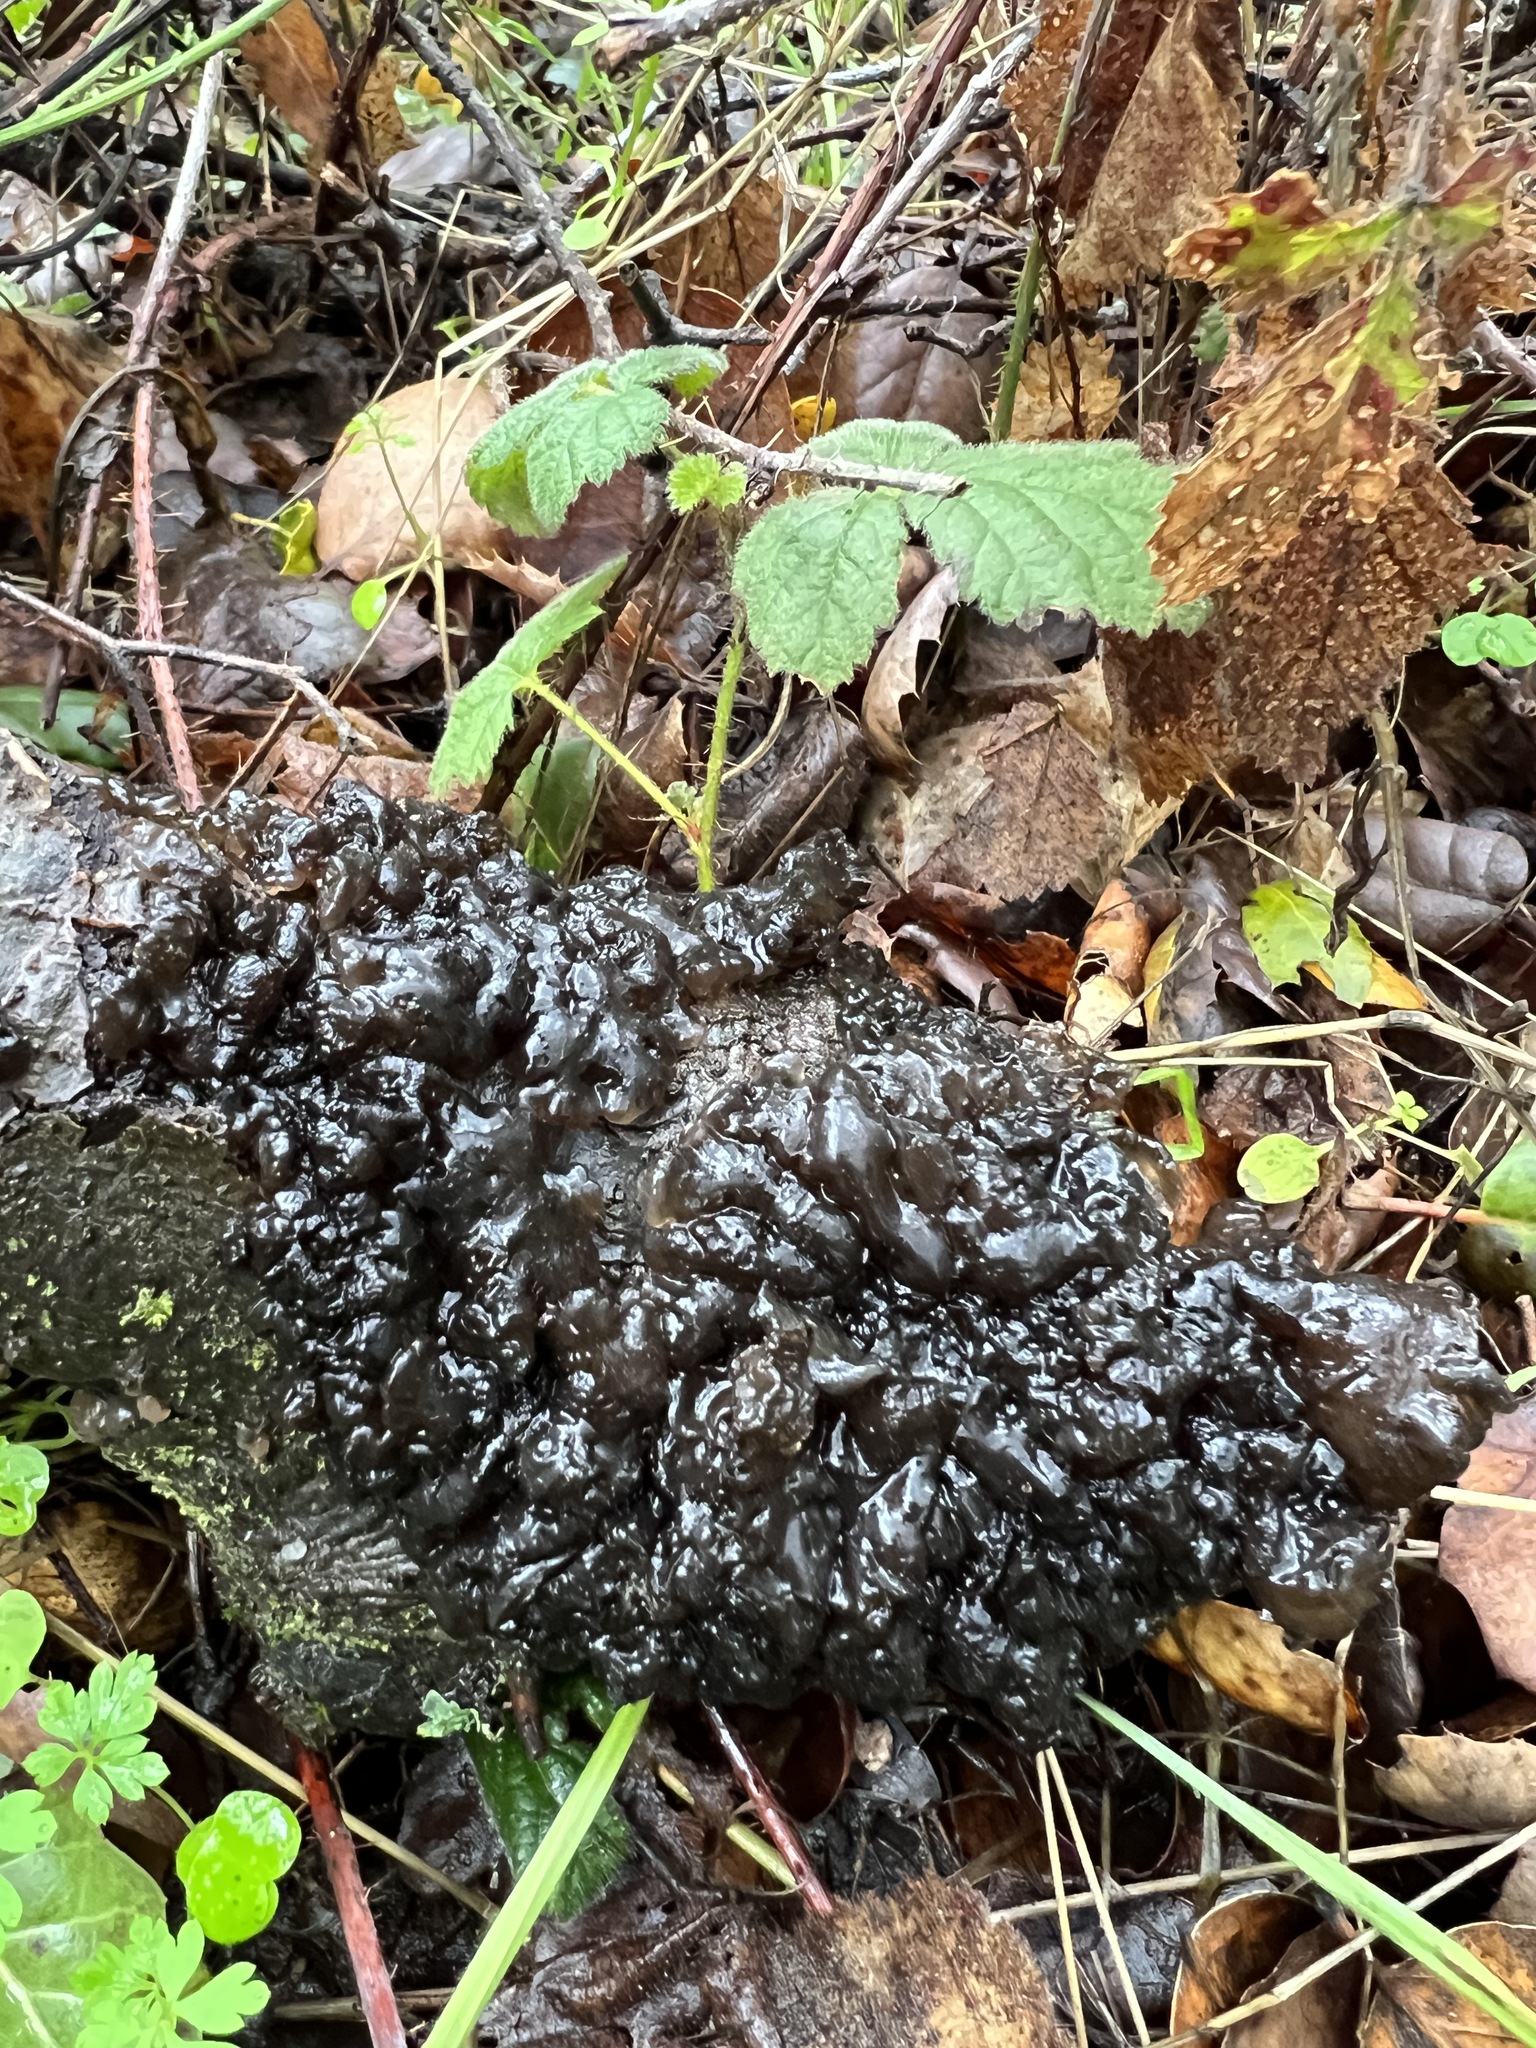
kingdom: Fungi
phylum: Basidiomycota
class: Agaricomycetes
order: Auriculariales
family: Auriculariaceae
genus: Exidia
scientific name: Exidia glandulosa
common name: Witches' butter
